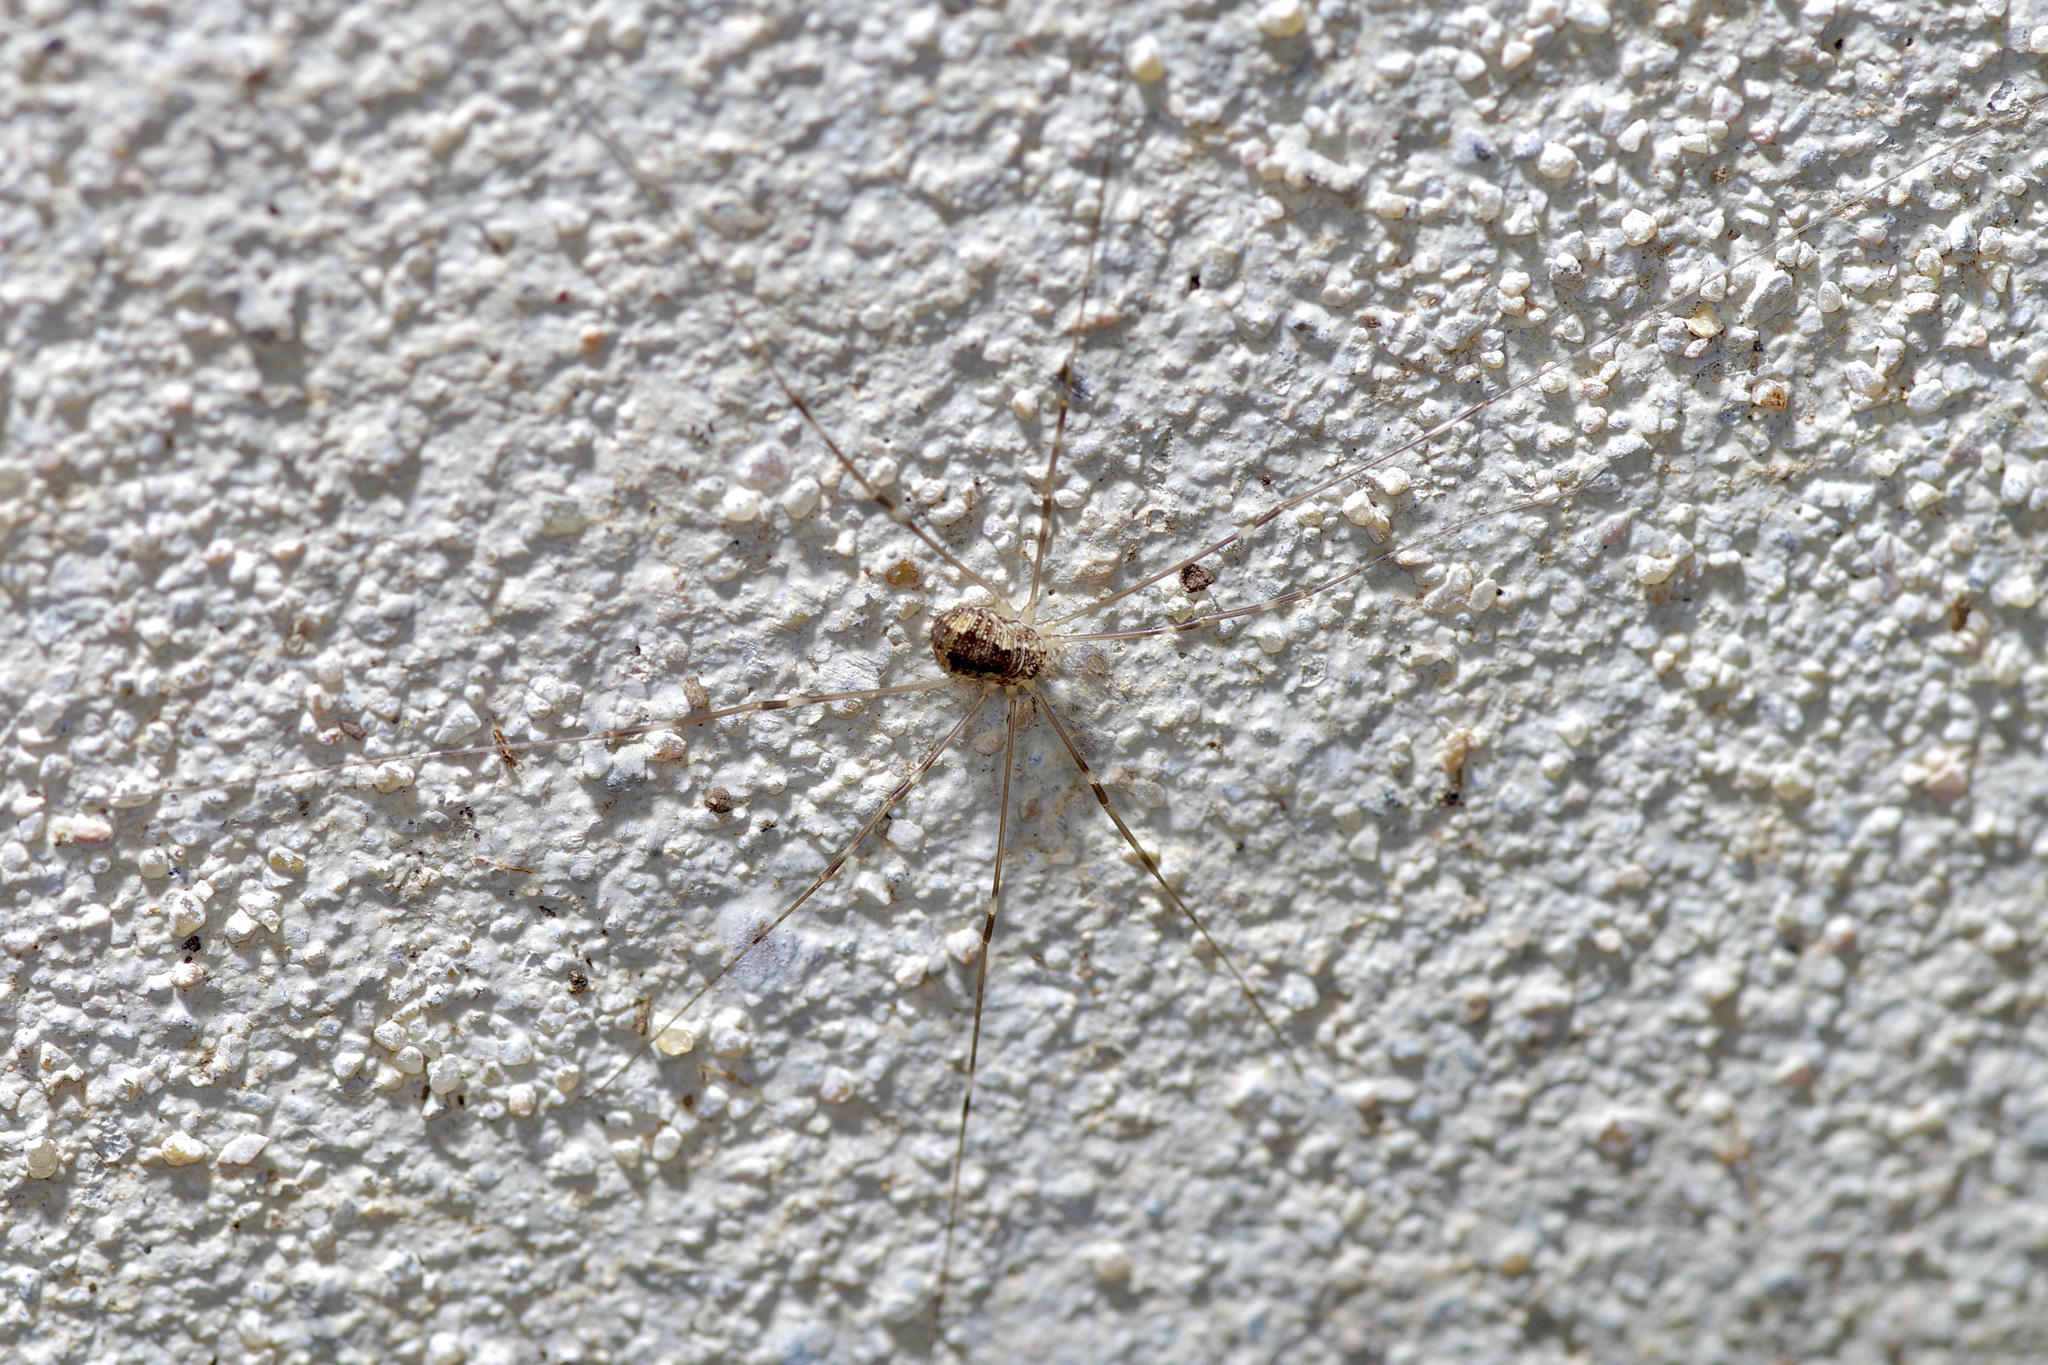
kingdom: Animalia
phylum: Arthropoda
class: Arachnida
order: Opiliones
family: Sclerosomatidae
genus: Leiobunum
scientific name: Leiobunum townsendi
